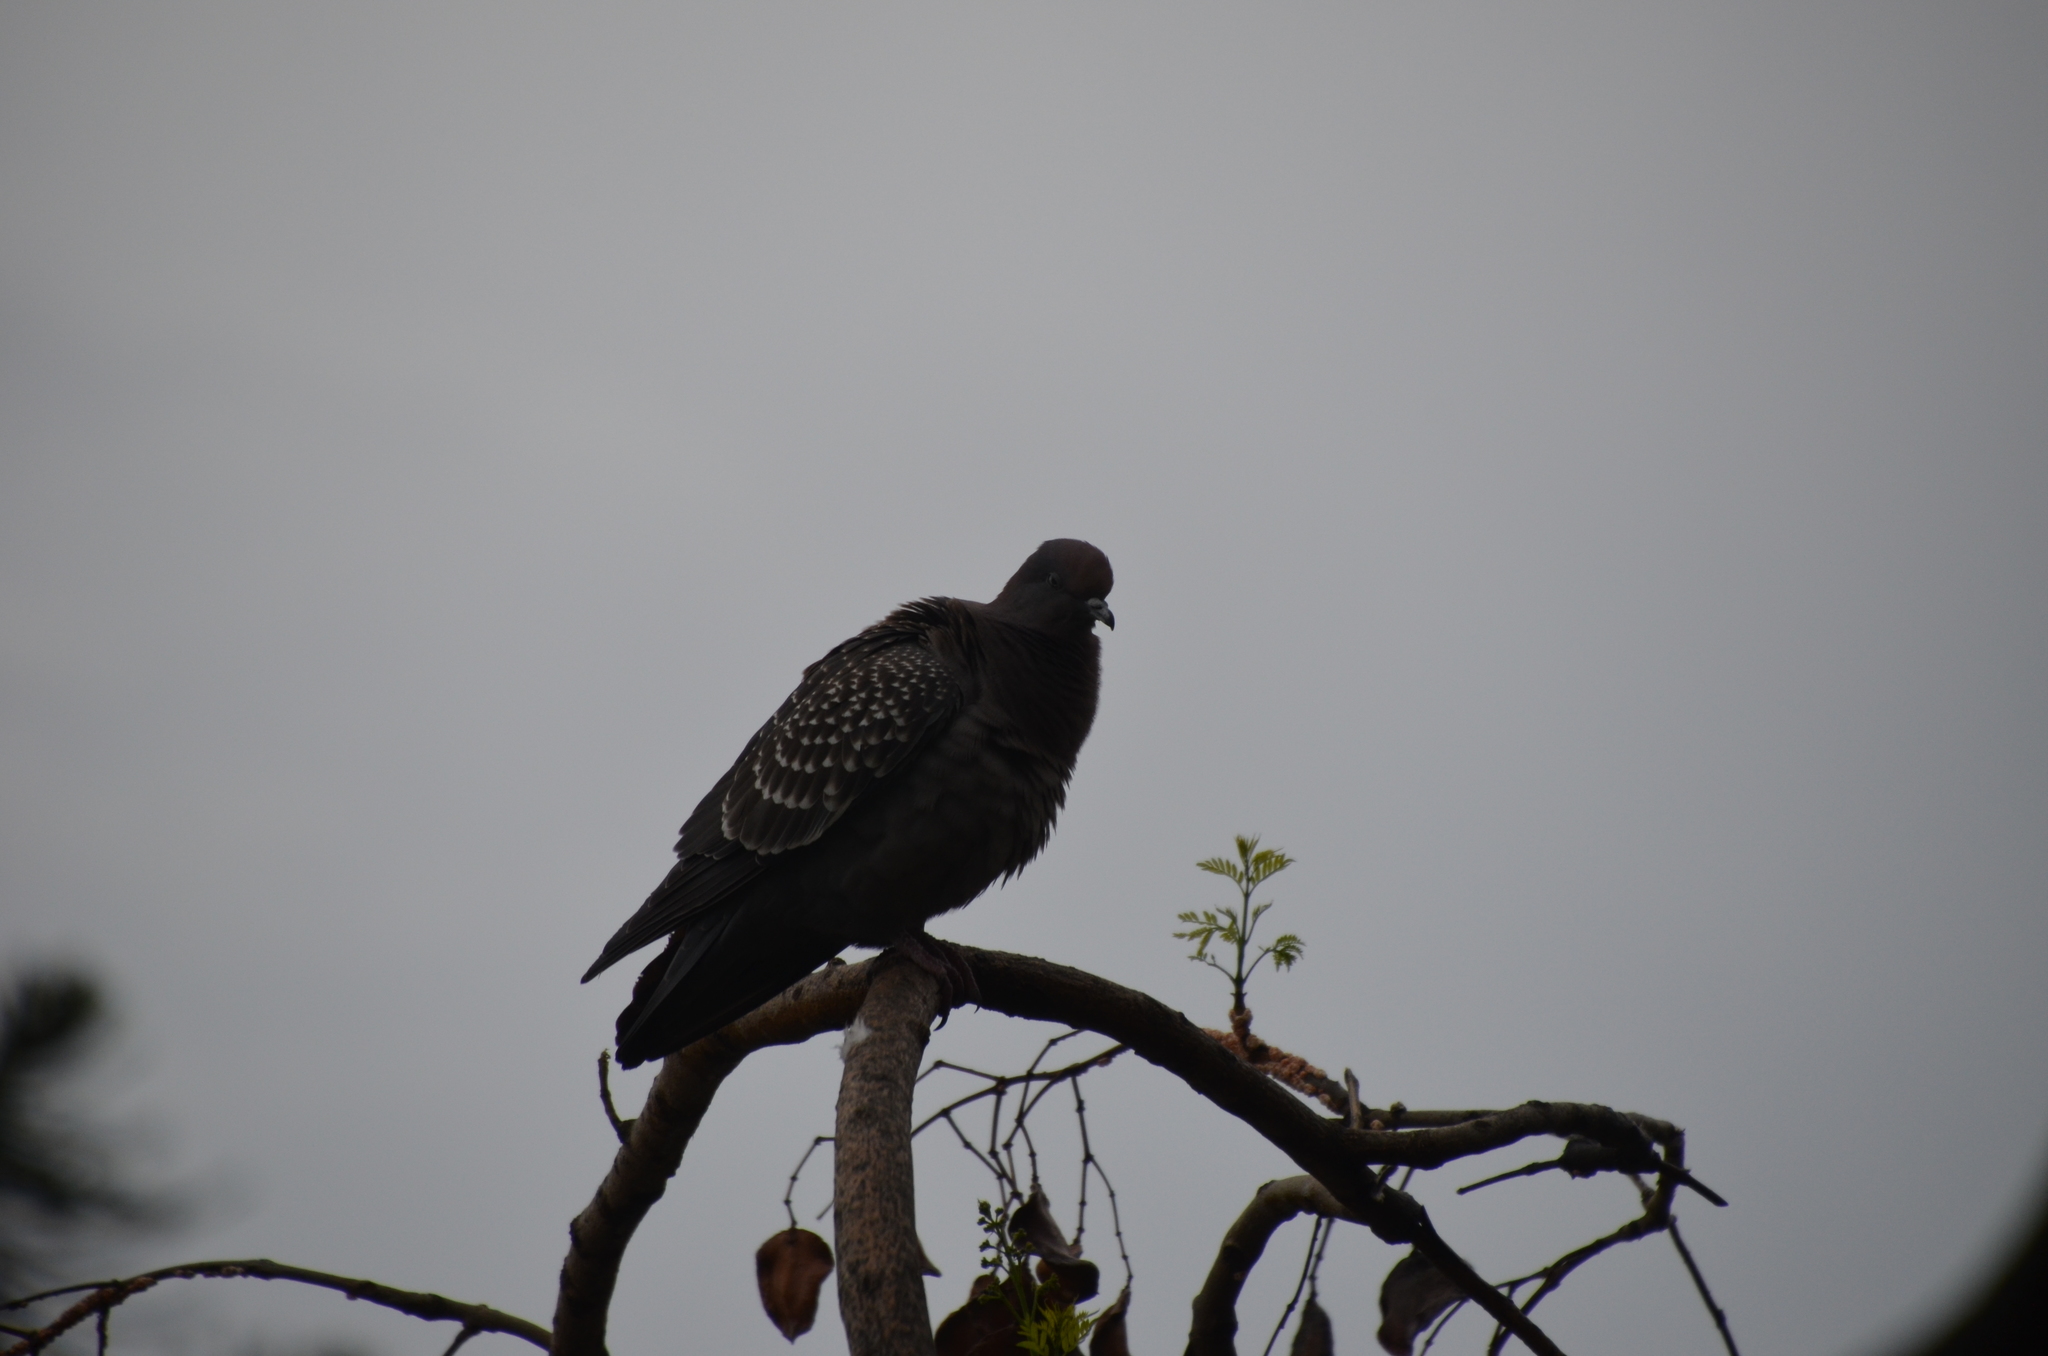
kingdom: Animalia
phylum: Chordata
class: Aves
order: Columbiformes
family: Columbidae
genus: Patagioenas
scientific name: Patagioenas maculosa
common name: Spot-winged pigeon
